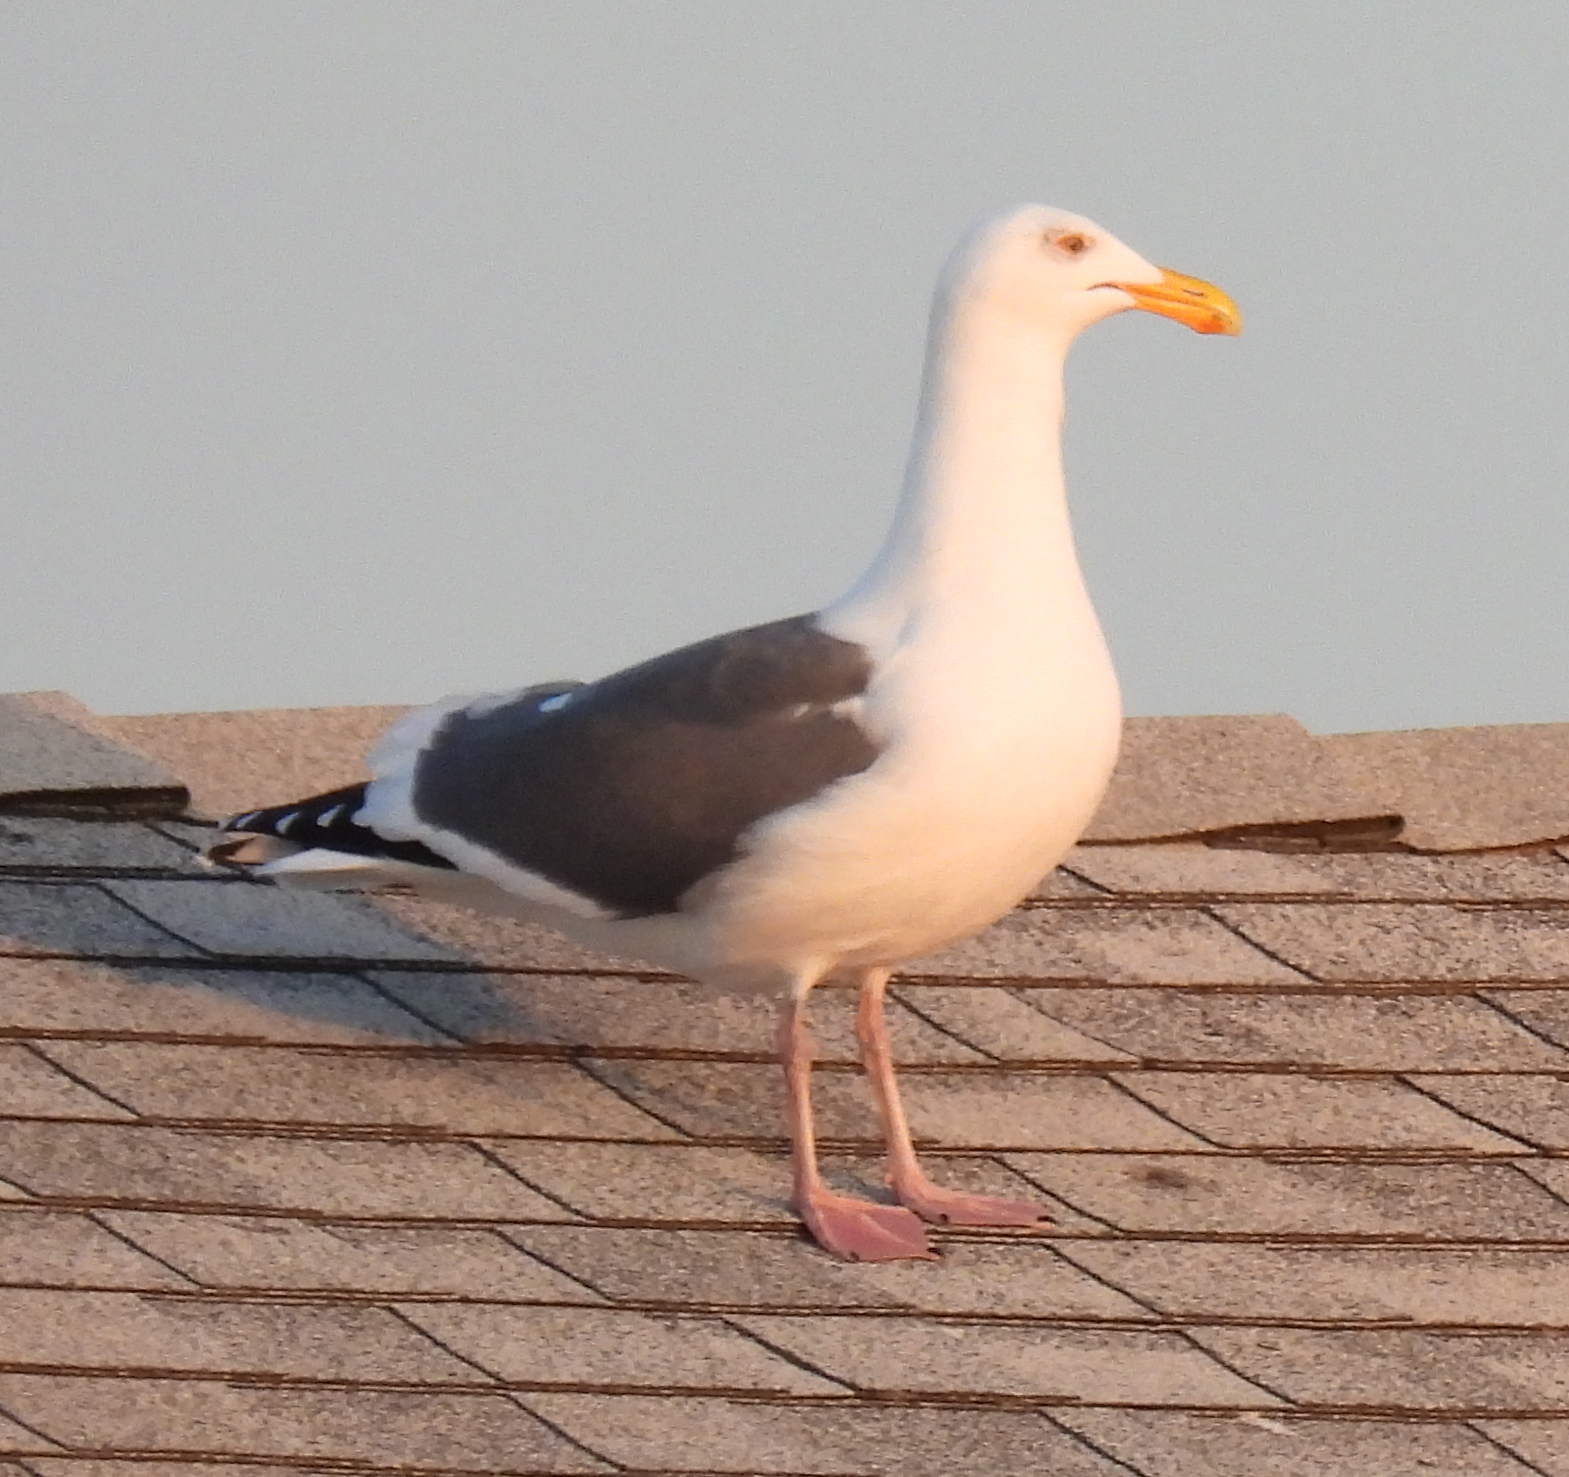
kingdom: Animalia
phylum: Chordata
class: Aves
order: Charadriiformes
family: Laridae
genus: Larus
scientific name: Larus occidentalis
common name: Western gull
